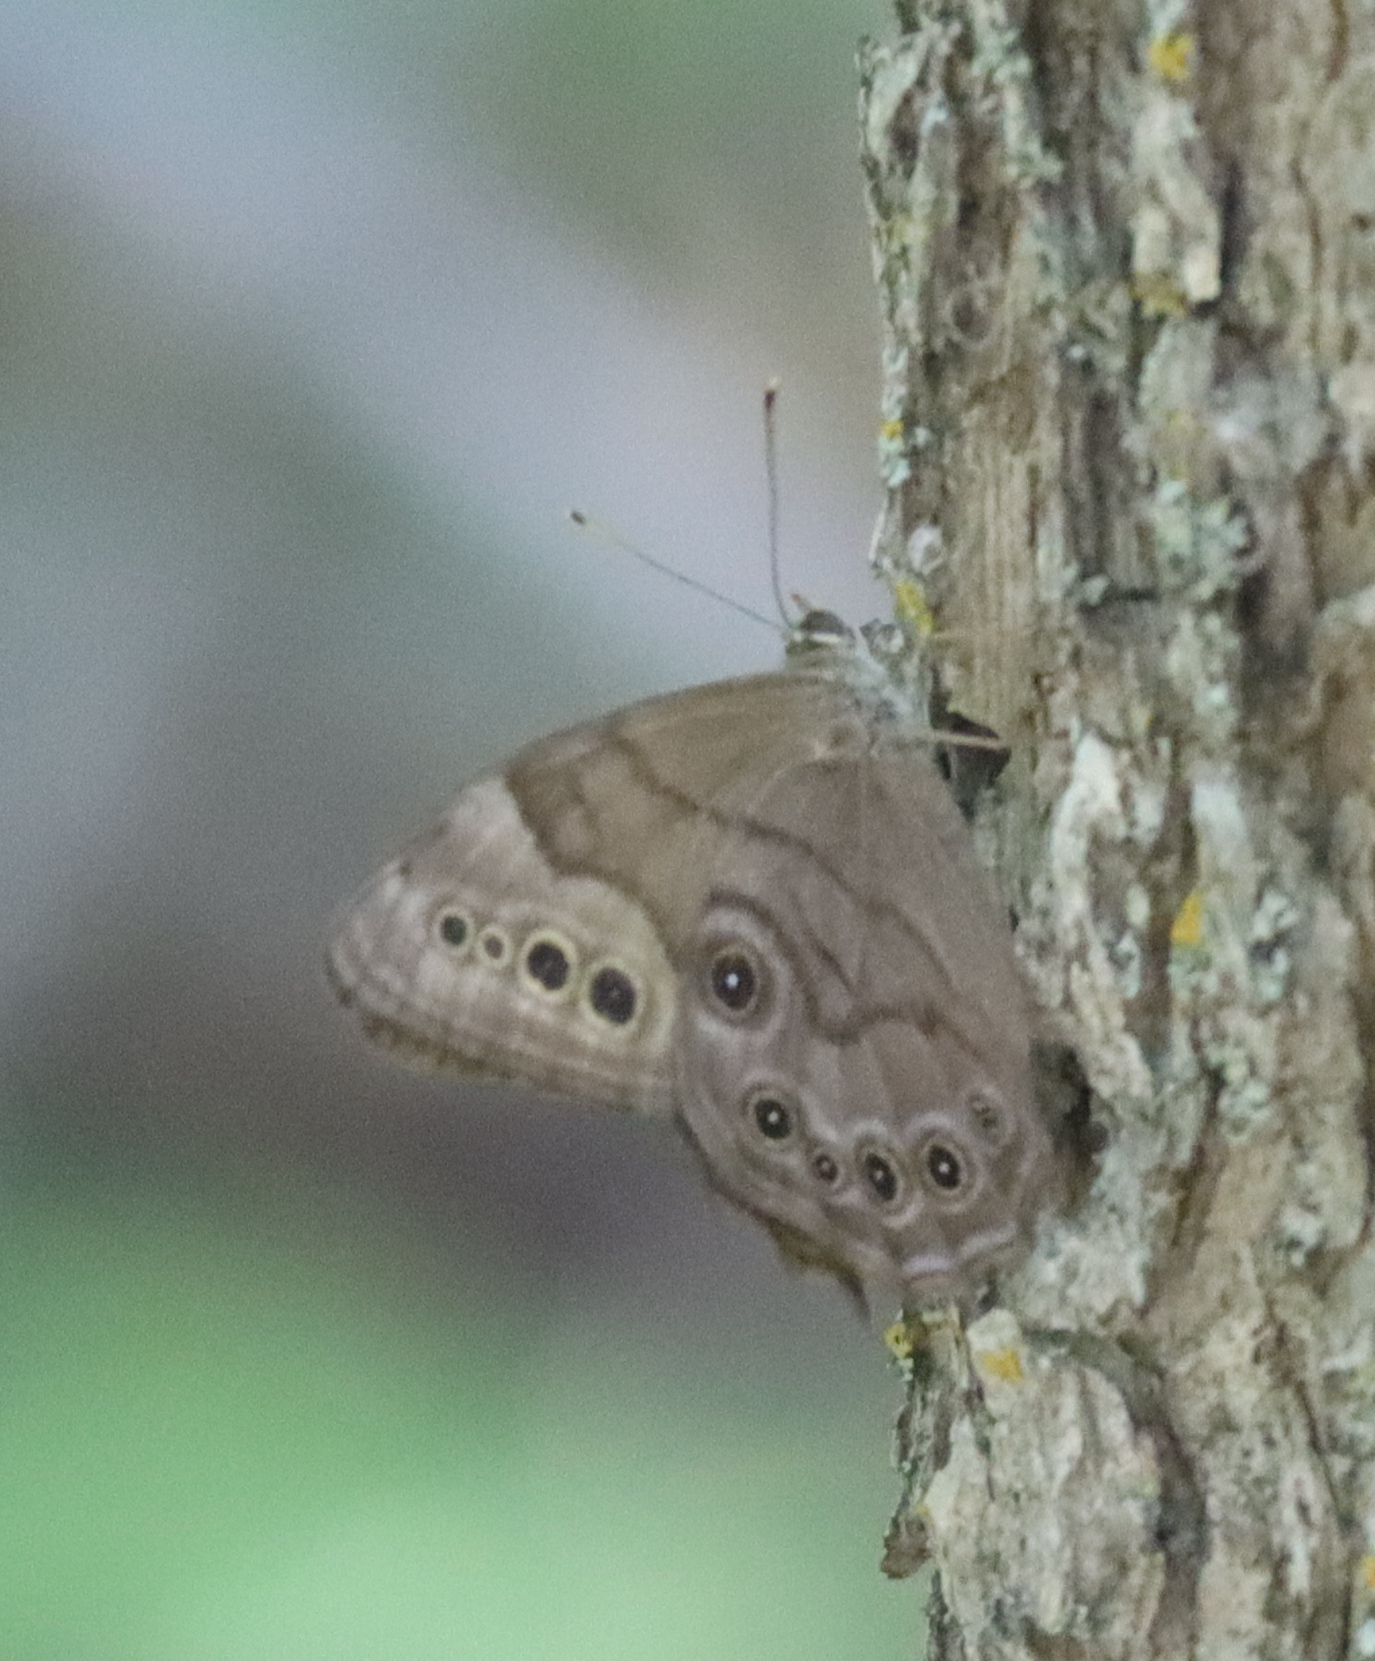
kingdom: Animalia
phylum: Arthropoda
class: Insecta
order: Lepidoptera
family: Nymphalidae
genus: Lethe
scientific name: Lethe anthedon
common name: Northern pearly-eye
